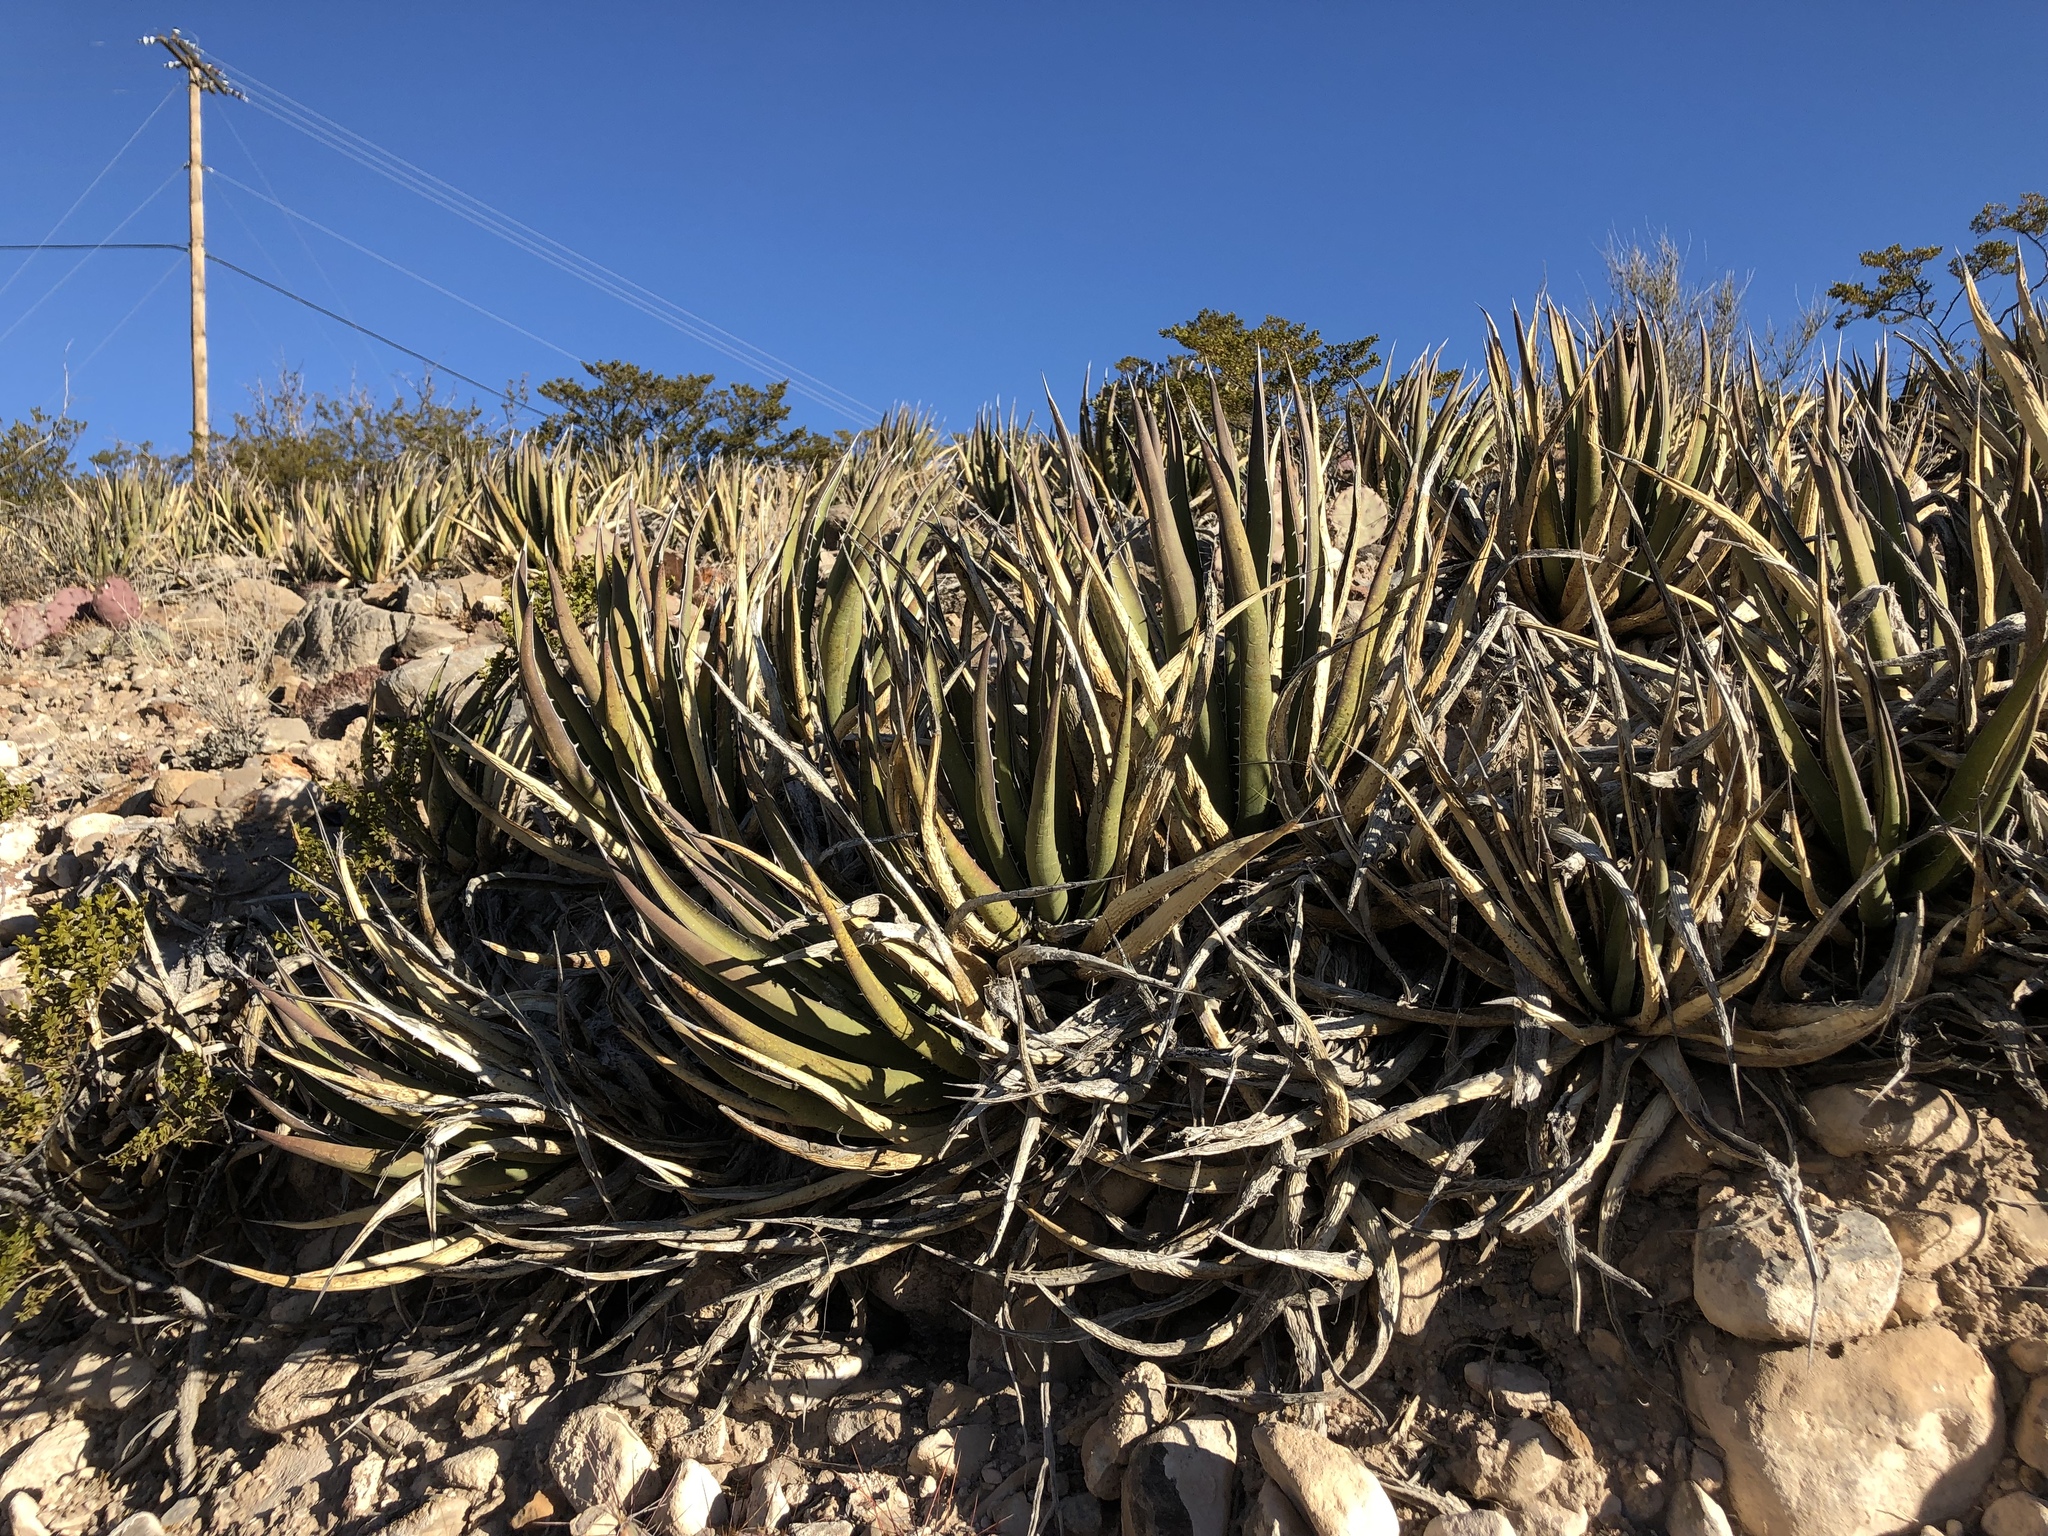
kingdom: Plantae
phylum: Tracheophyta
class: Liliopsida
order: Asparagales
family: Asparagaceae
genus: Agave
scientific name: Agave lechuguilla
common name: Lecheguilla agave
